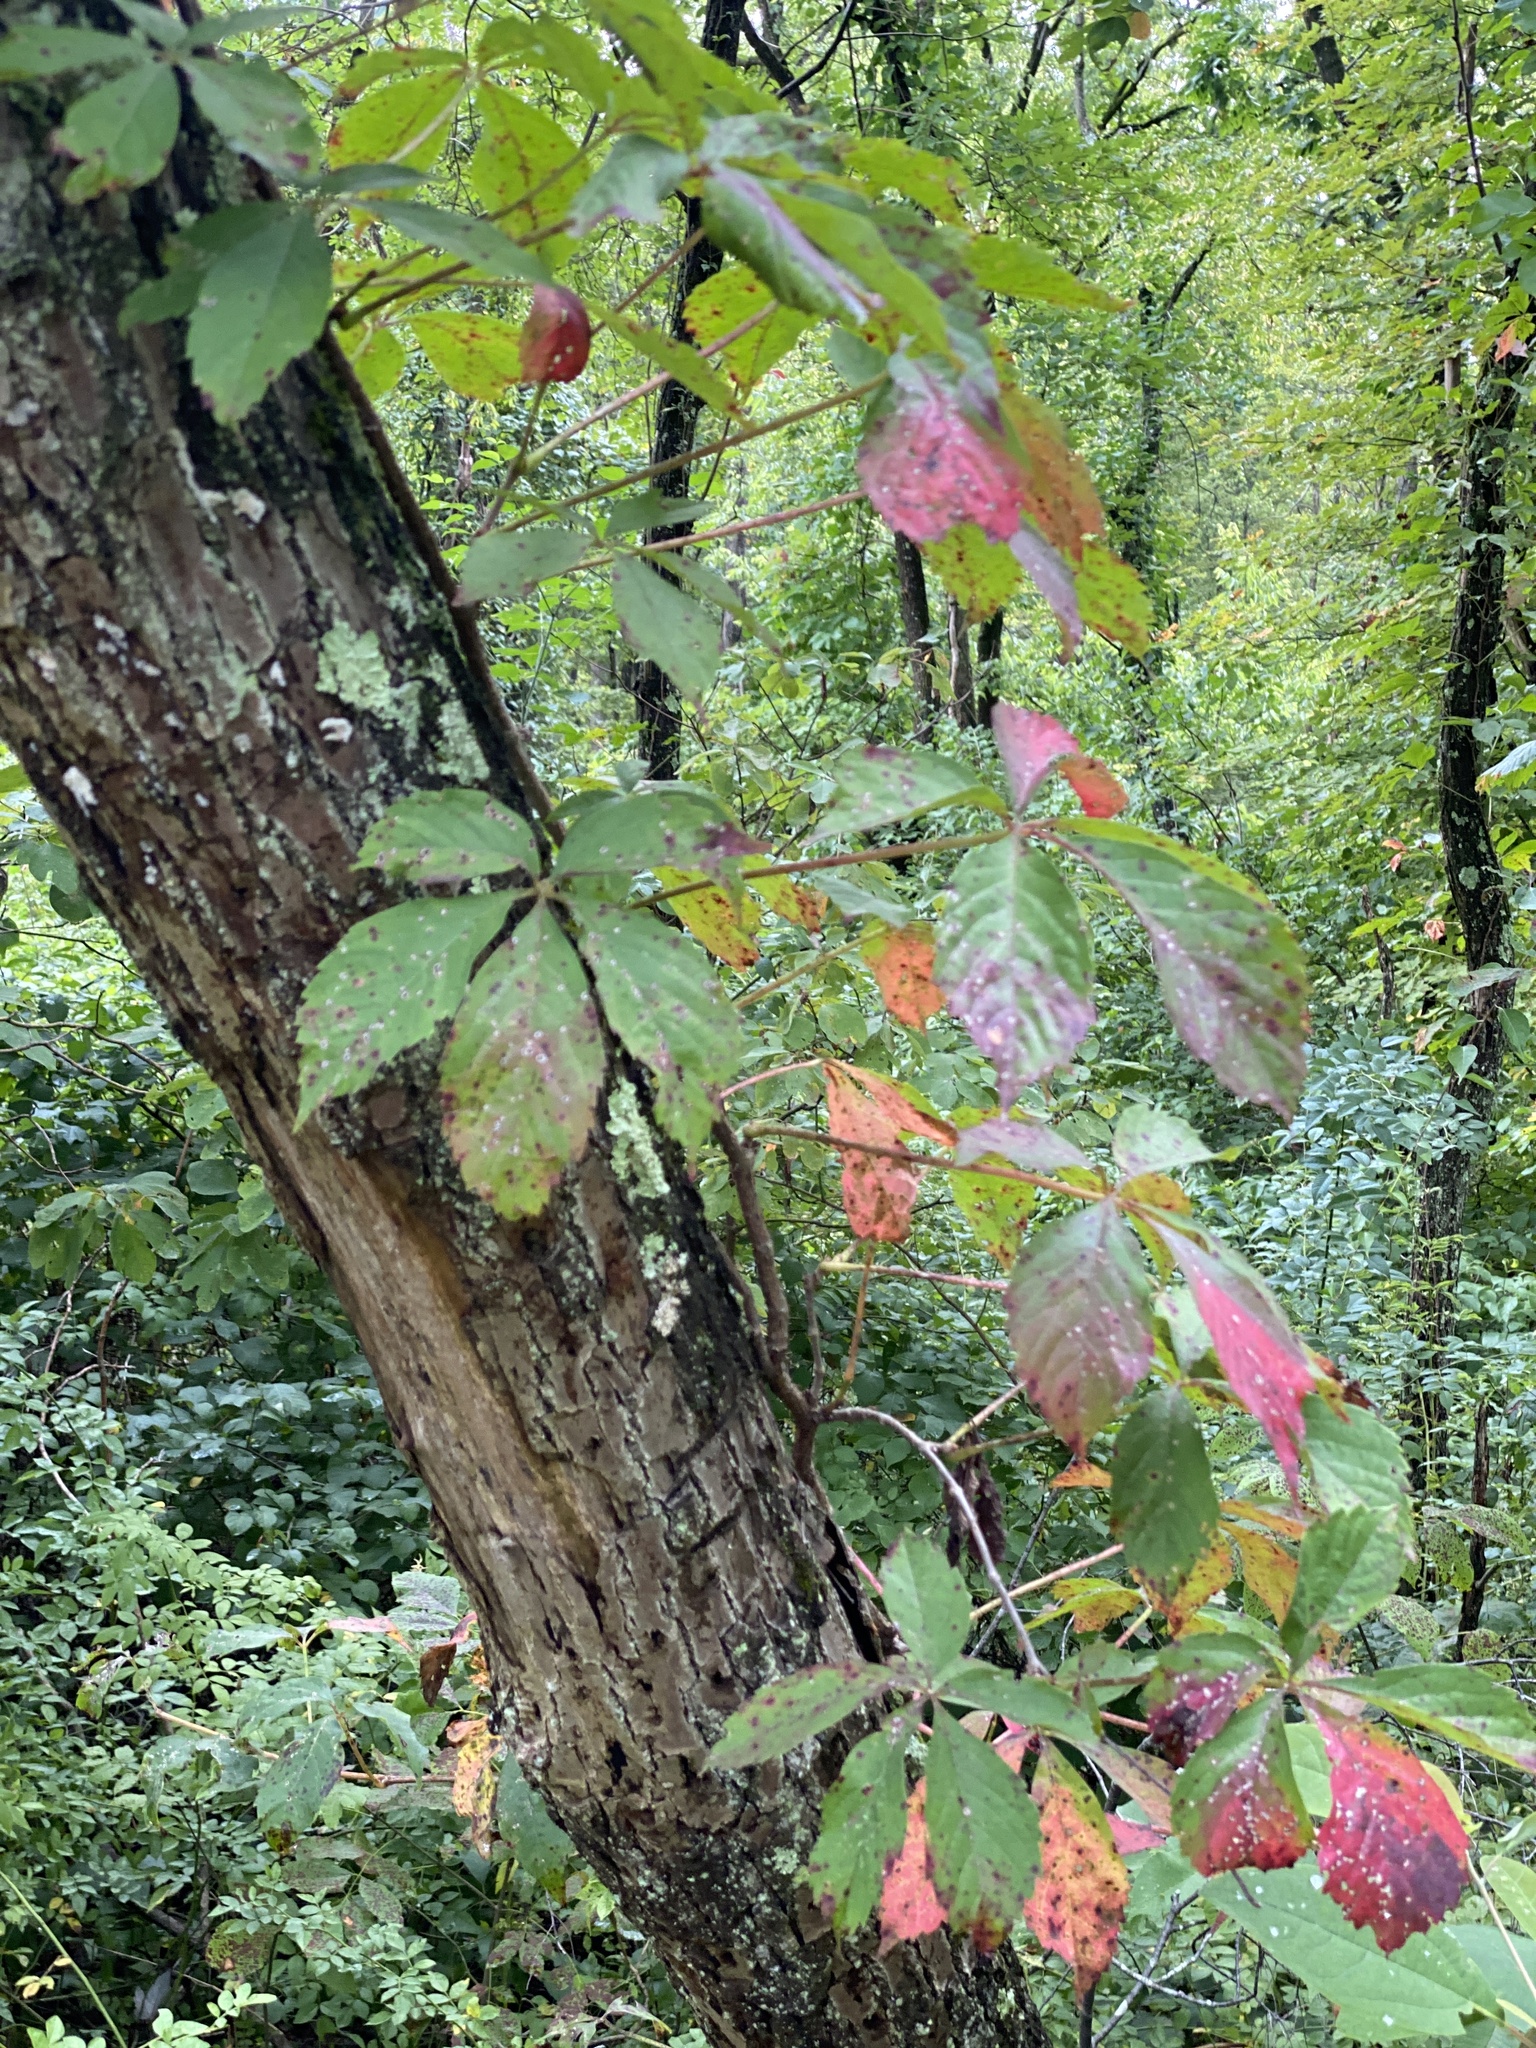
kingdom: Plantae
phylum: Tracheophyta
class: Magnoliopsida
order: Vitales
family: Vitaceae
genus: Parthenocissus
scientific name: Parthenocissus quinquefolia
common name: Virginia-creeper
